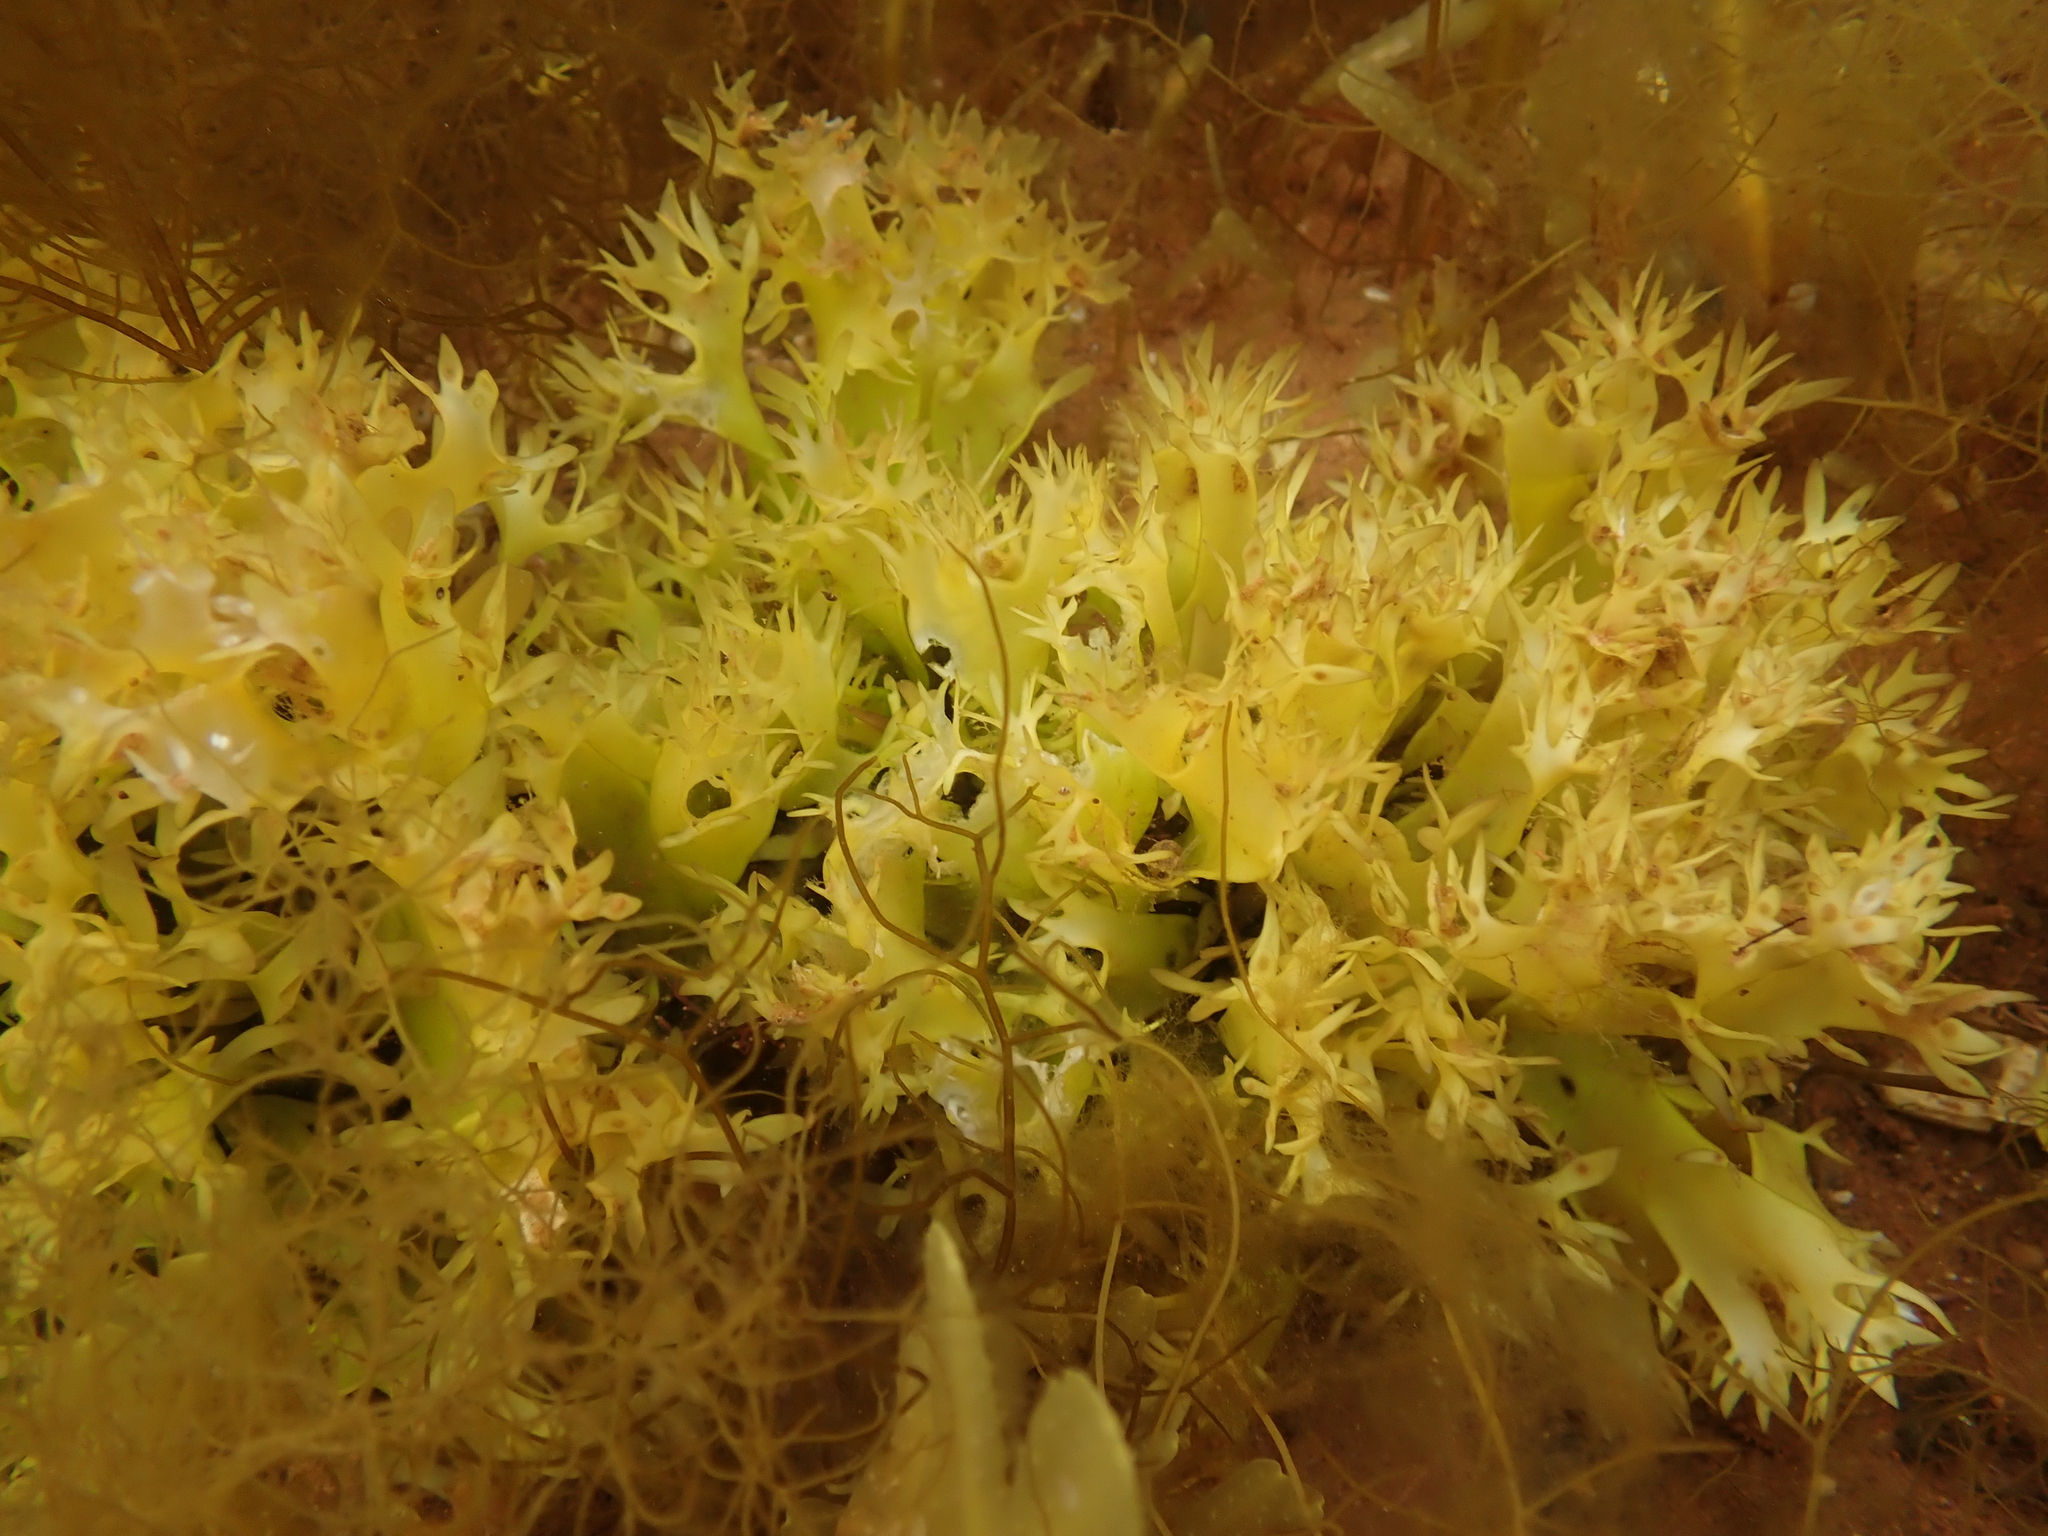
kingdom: Plantae
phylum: Rhodophyta
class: Florideophyceae
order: Gigartinales
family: Gigartinaceae
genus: Chondrus
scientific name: Chondrus crispus
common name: Carrageen
